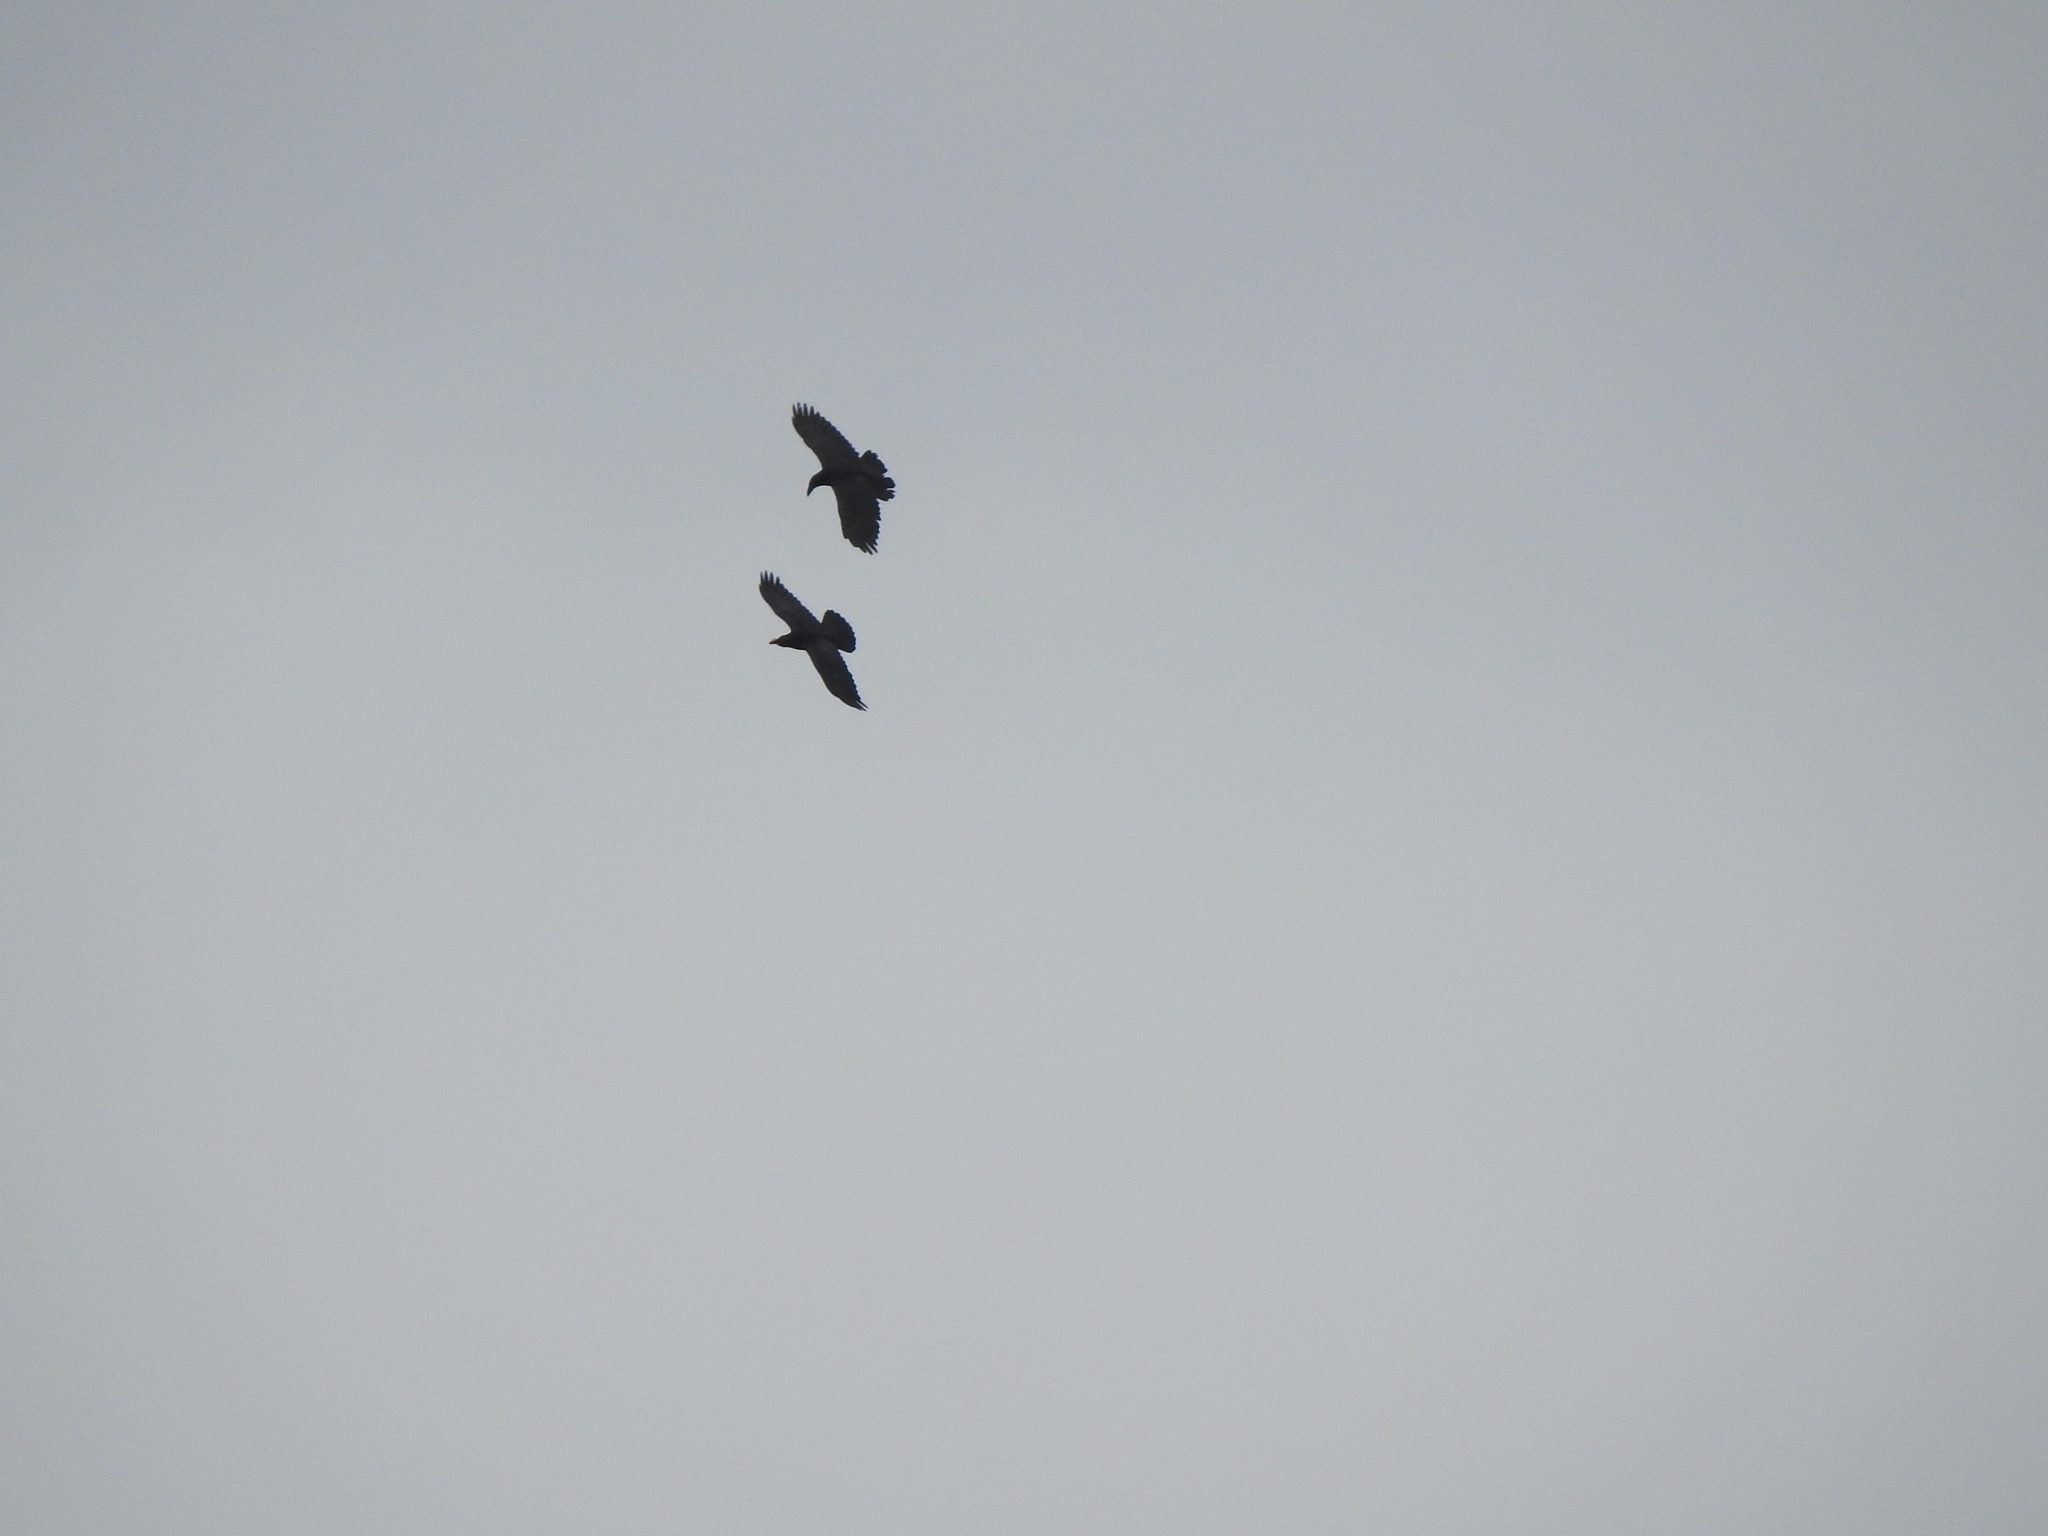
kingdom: Animalia
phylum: Chordata
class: Aves
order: Passeriformes
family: Corvidae
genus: Corvus
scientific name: Corvus corax
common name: Common raven
